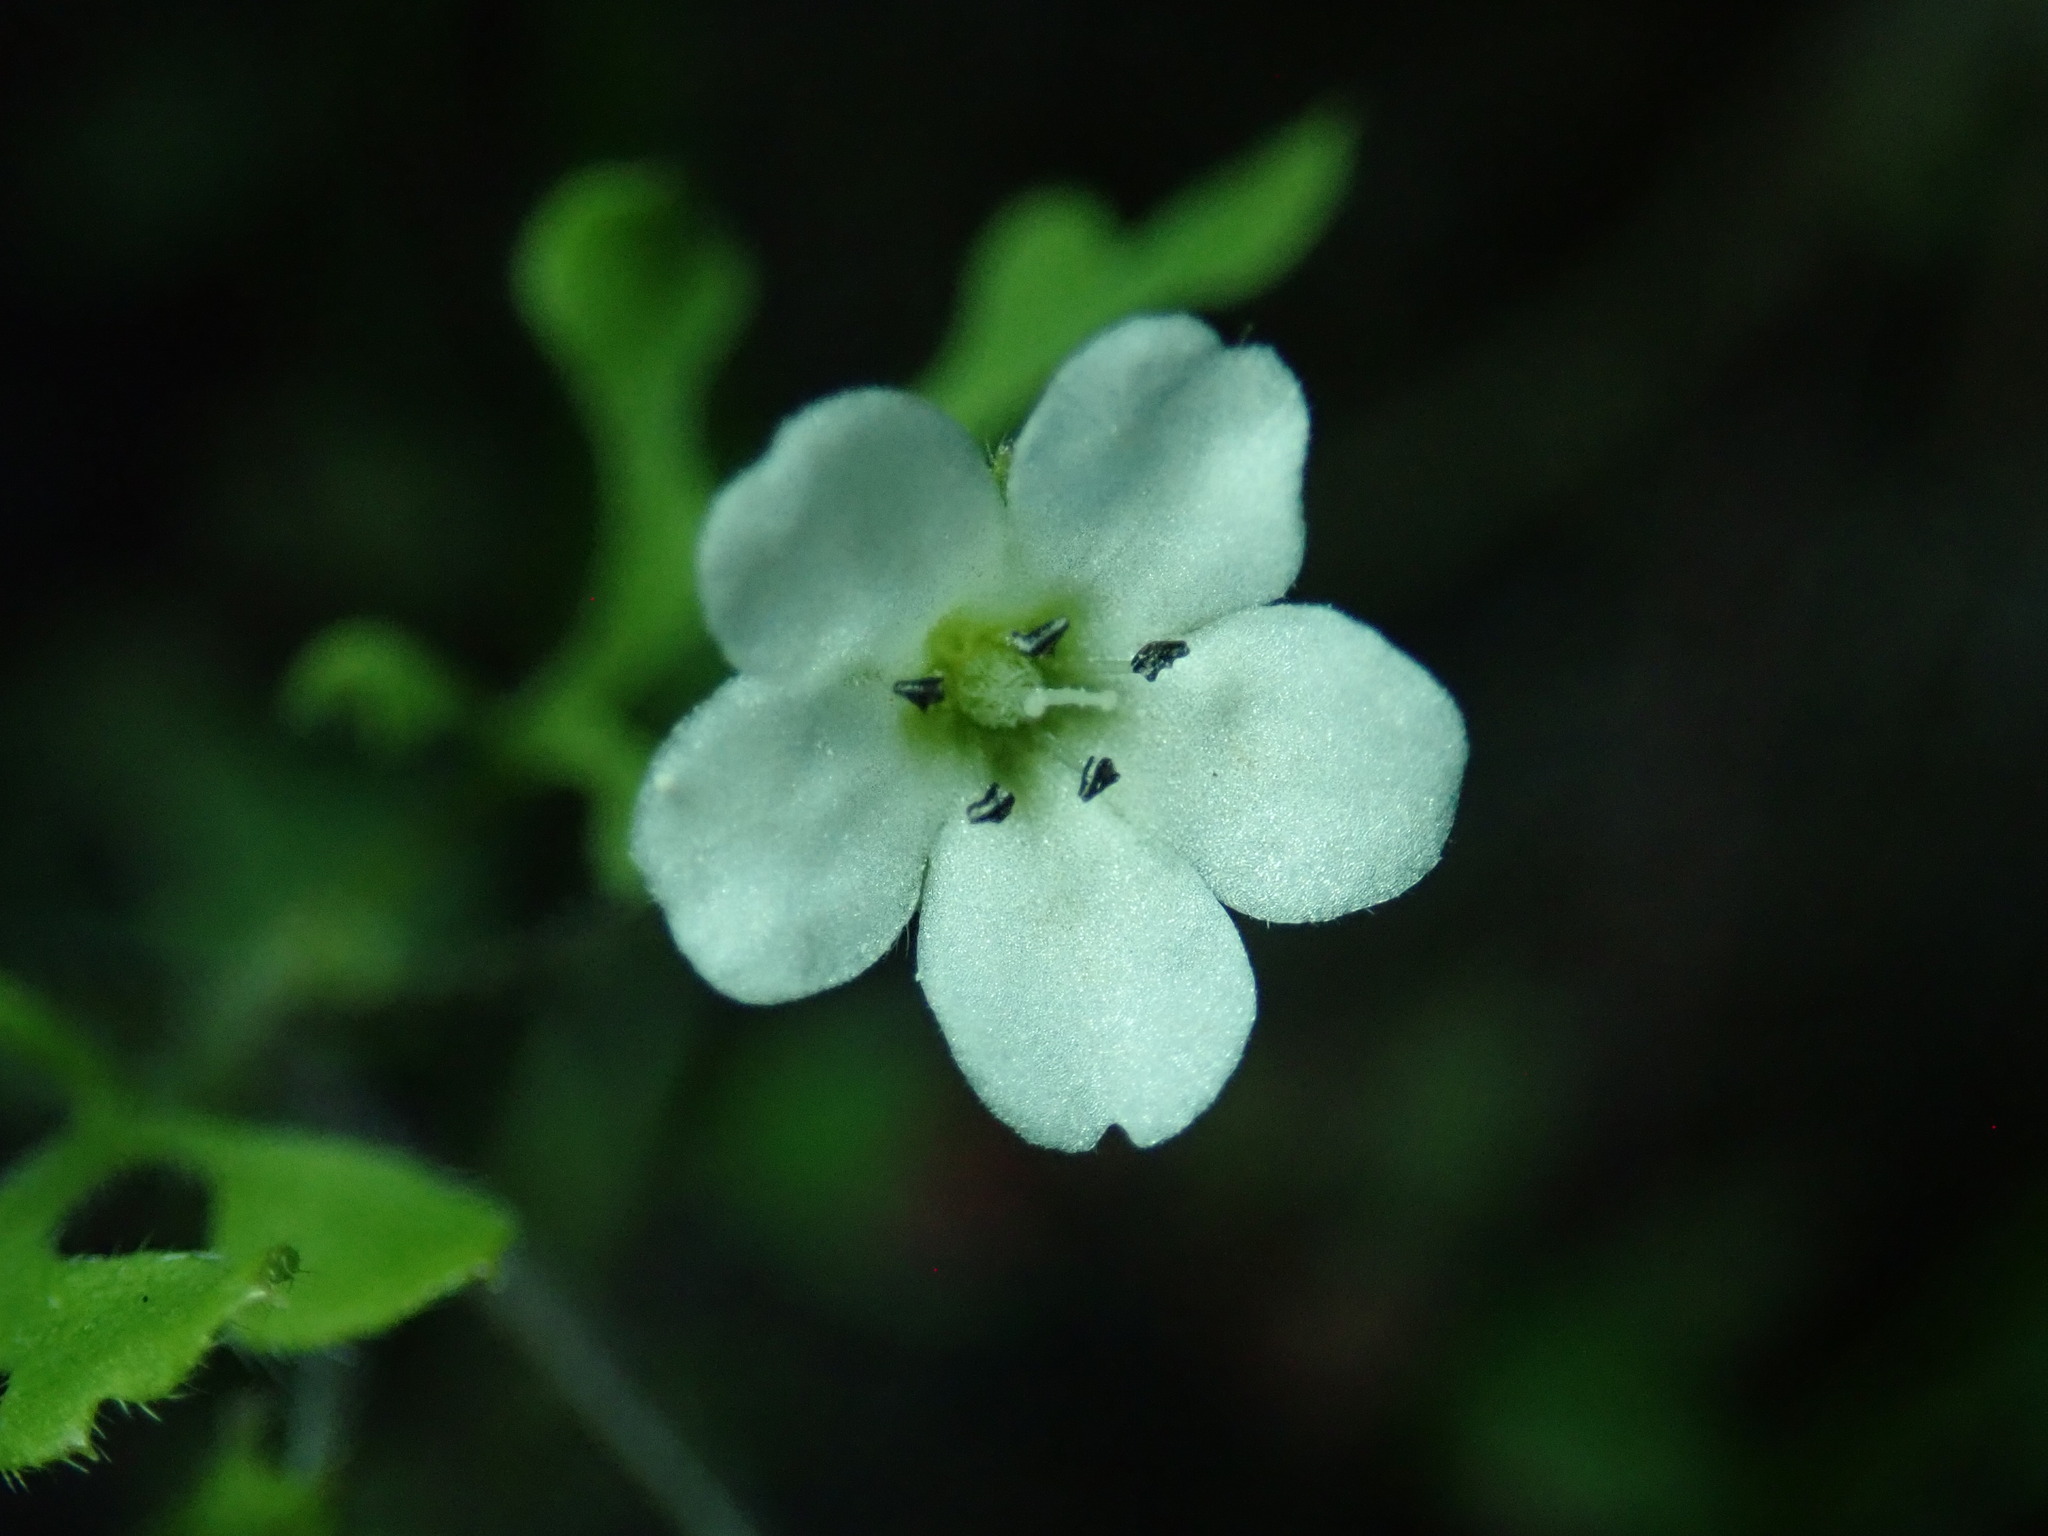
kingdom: Plantae
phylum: Tracheophyta
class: Magnoliopsida
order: Boraginales
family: Hydrophyllaceae
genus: Nemophila
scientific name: Nemophila heterophylla
